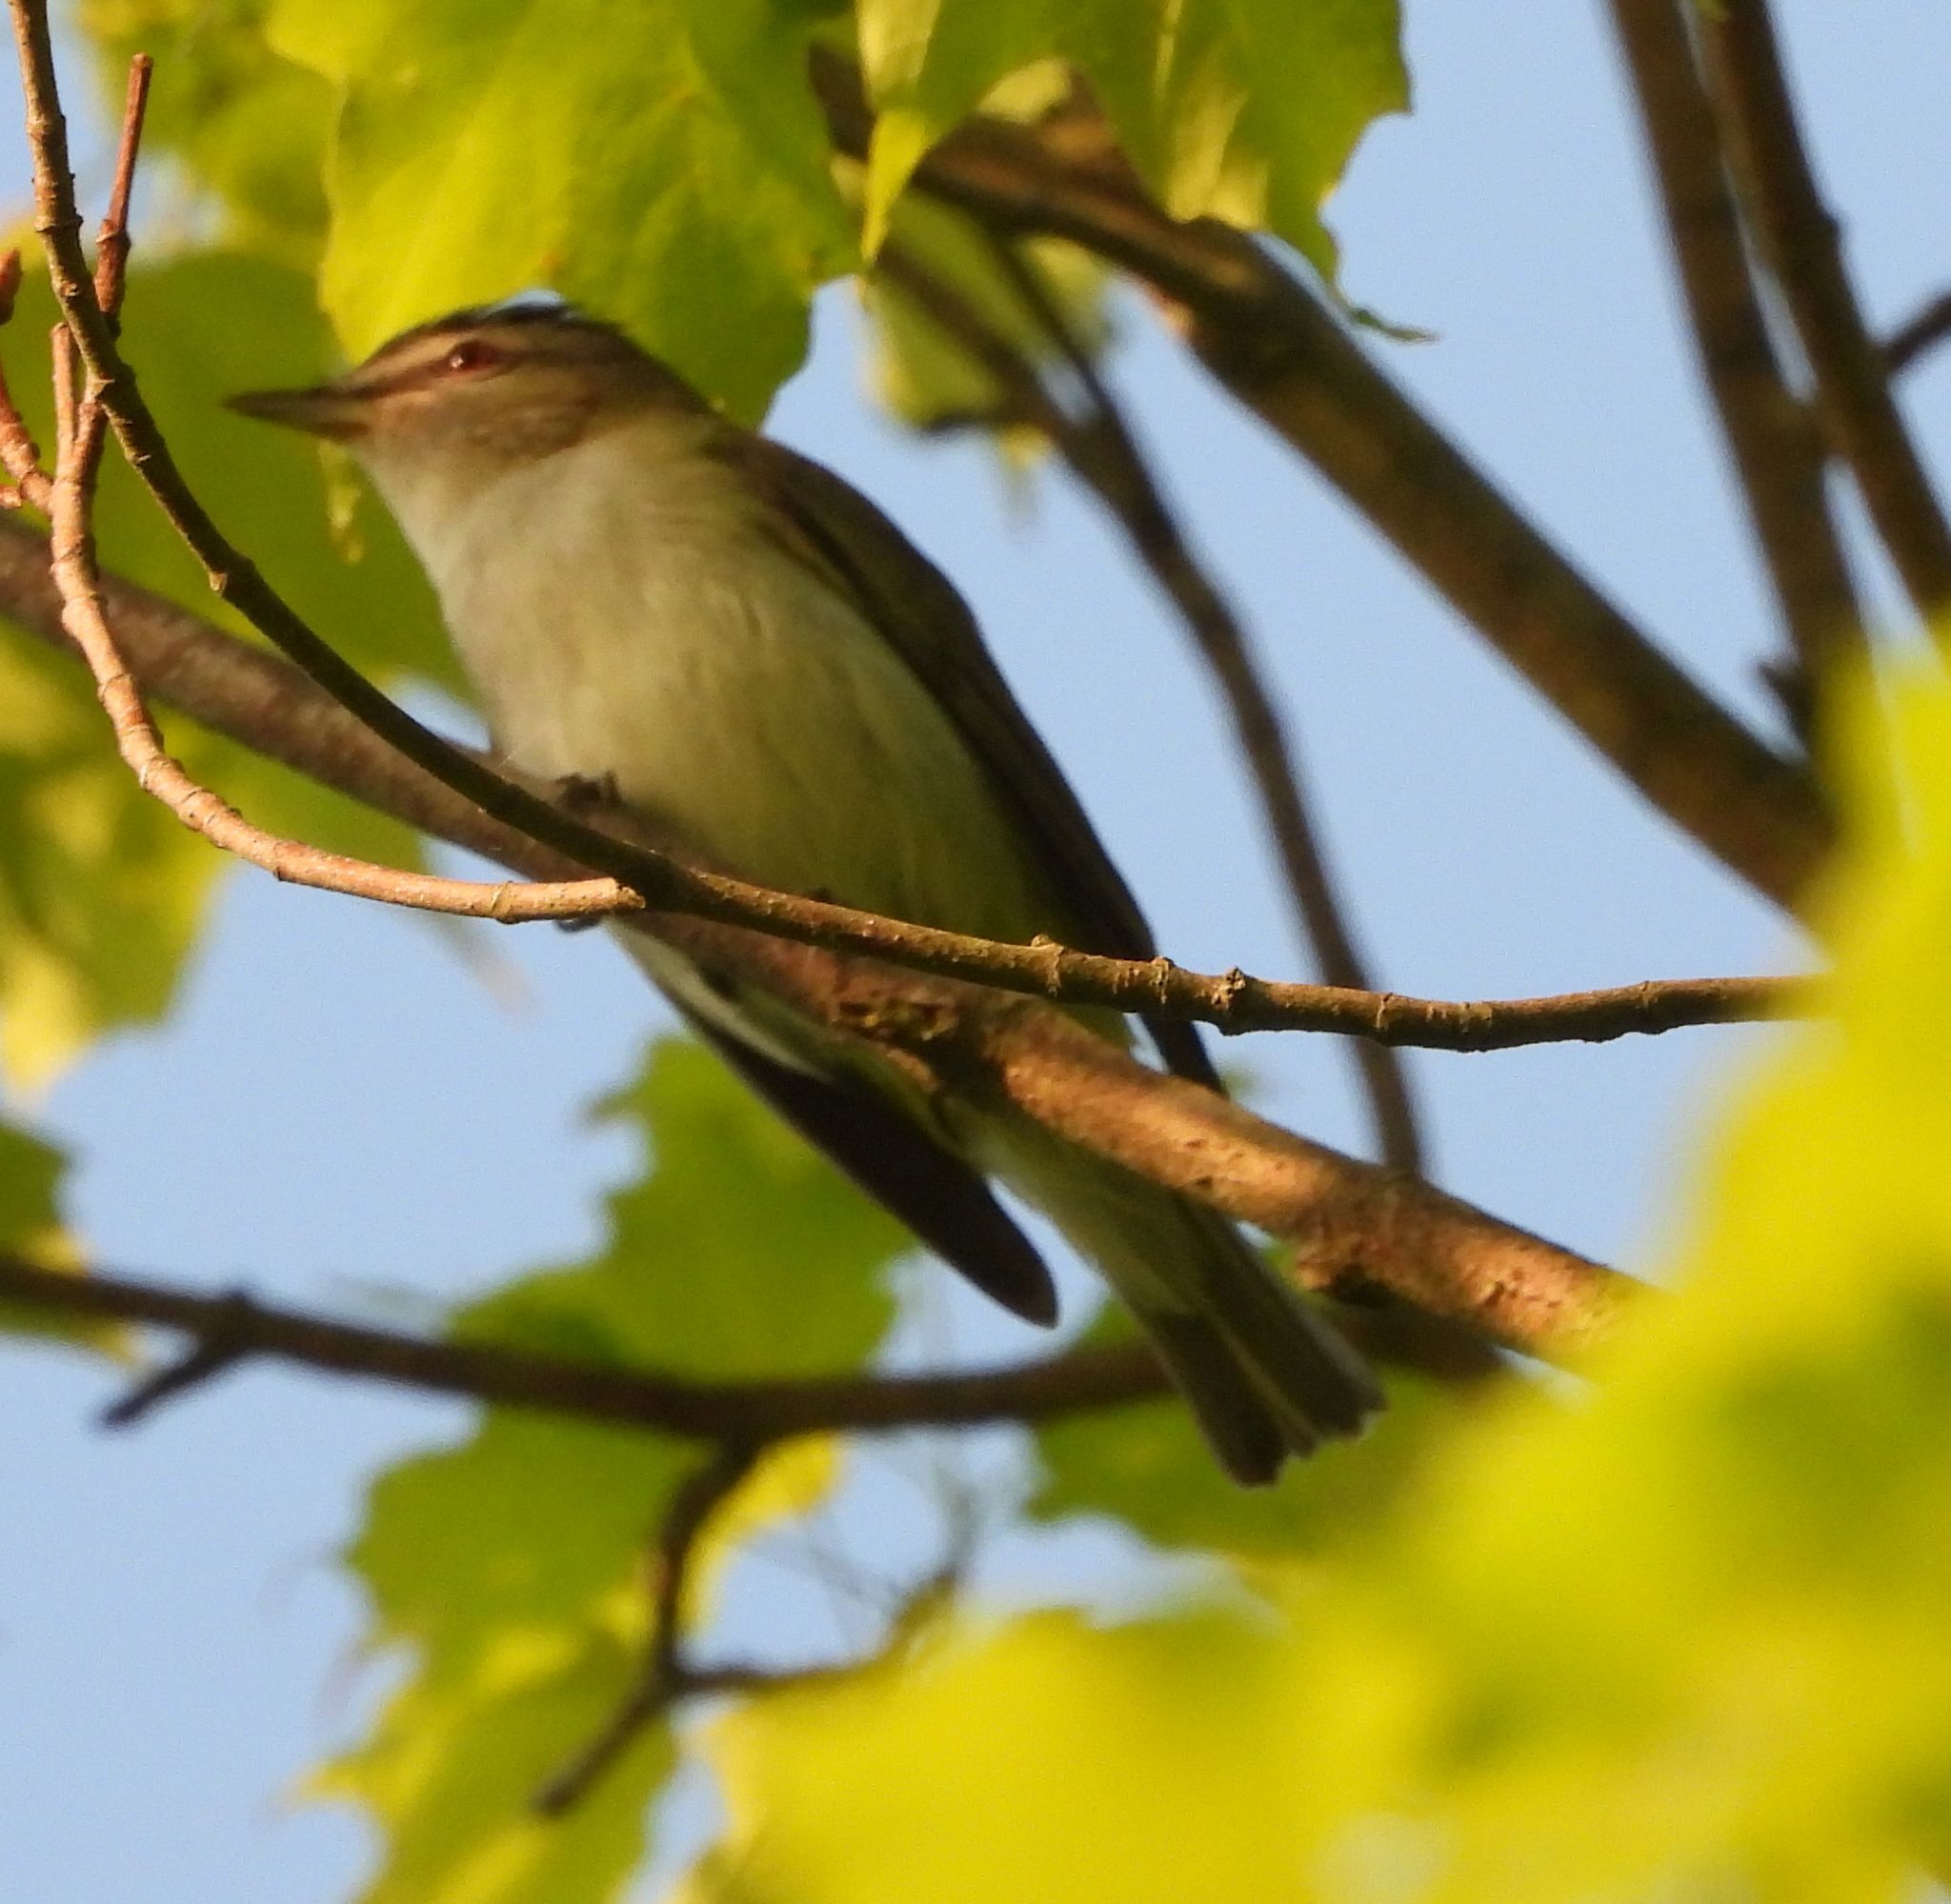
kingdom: Animalia
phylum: Chordata
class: Aves
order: Passeriformes
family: Vireonidae
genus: Vireo
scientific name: Vireo olivaceus
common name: Red-eyed vireo
